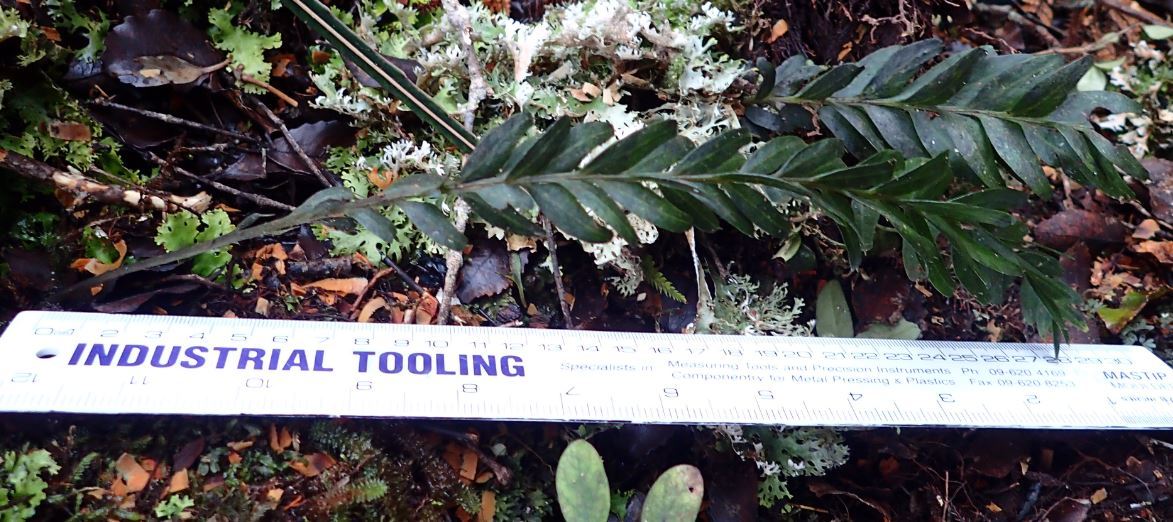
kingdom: Plantae
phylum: Tracheophyta
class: Polypodiopsida
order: Psilotales
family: Psilotaceae
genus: Tmesipteris
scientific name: Tmesipteris tannensis
